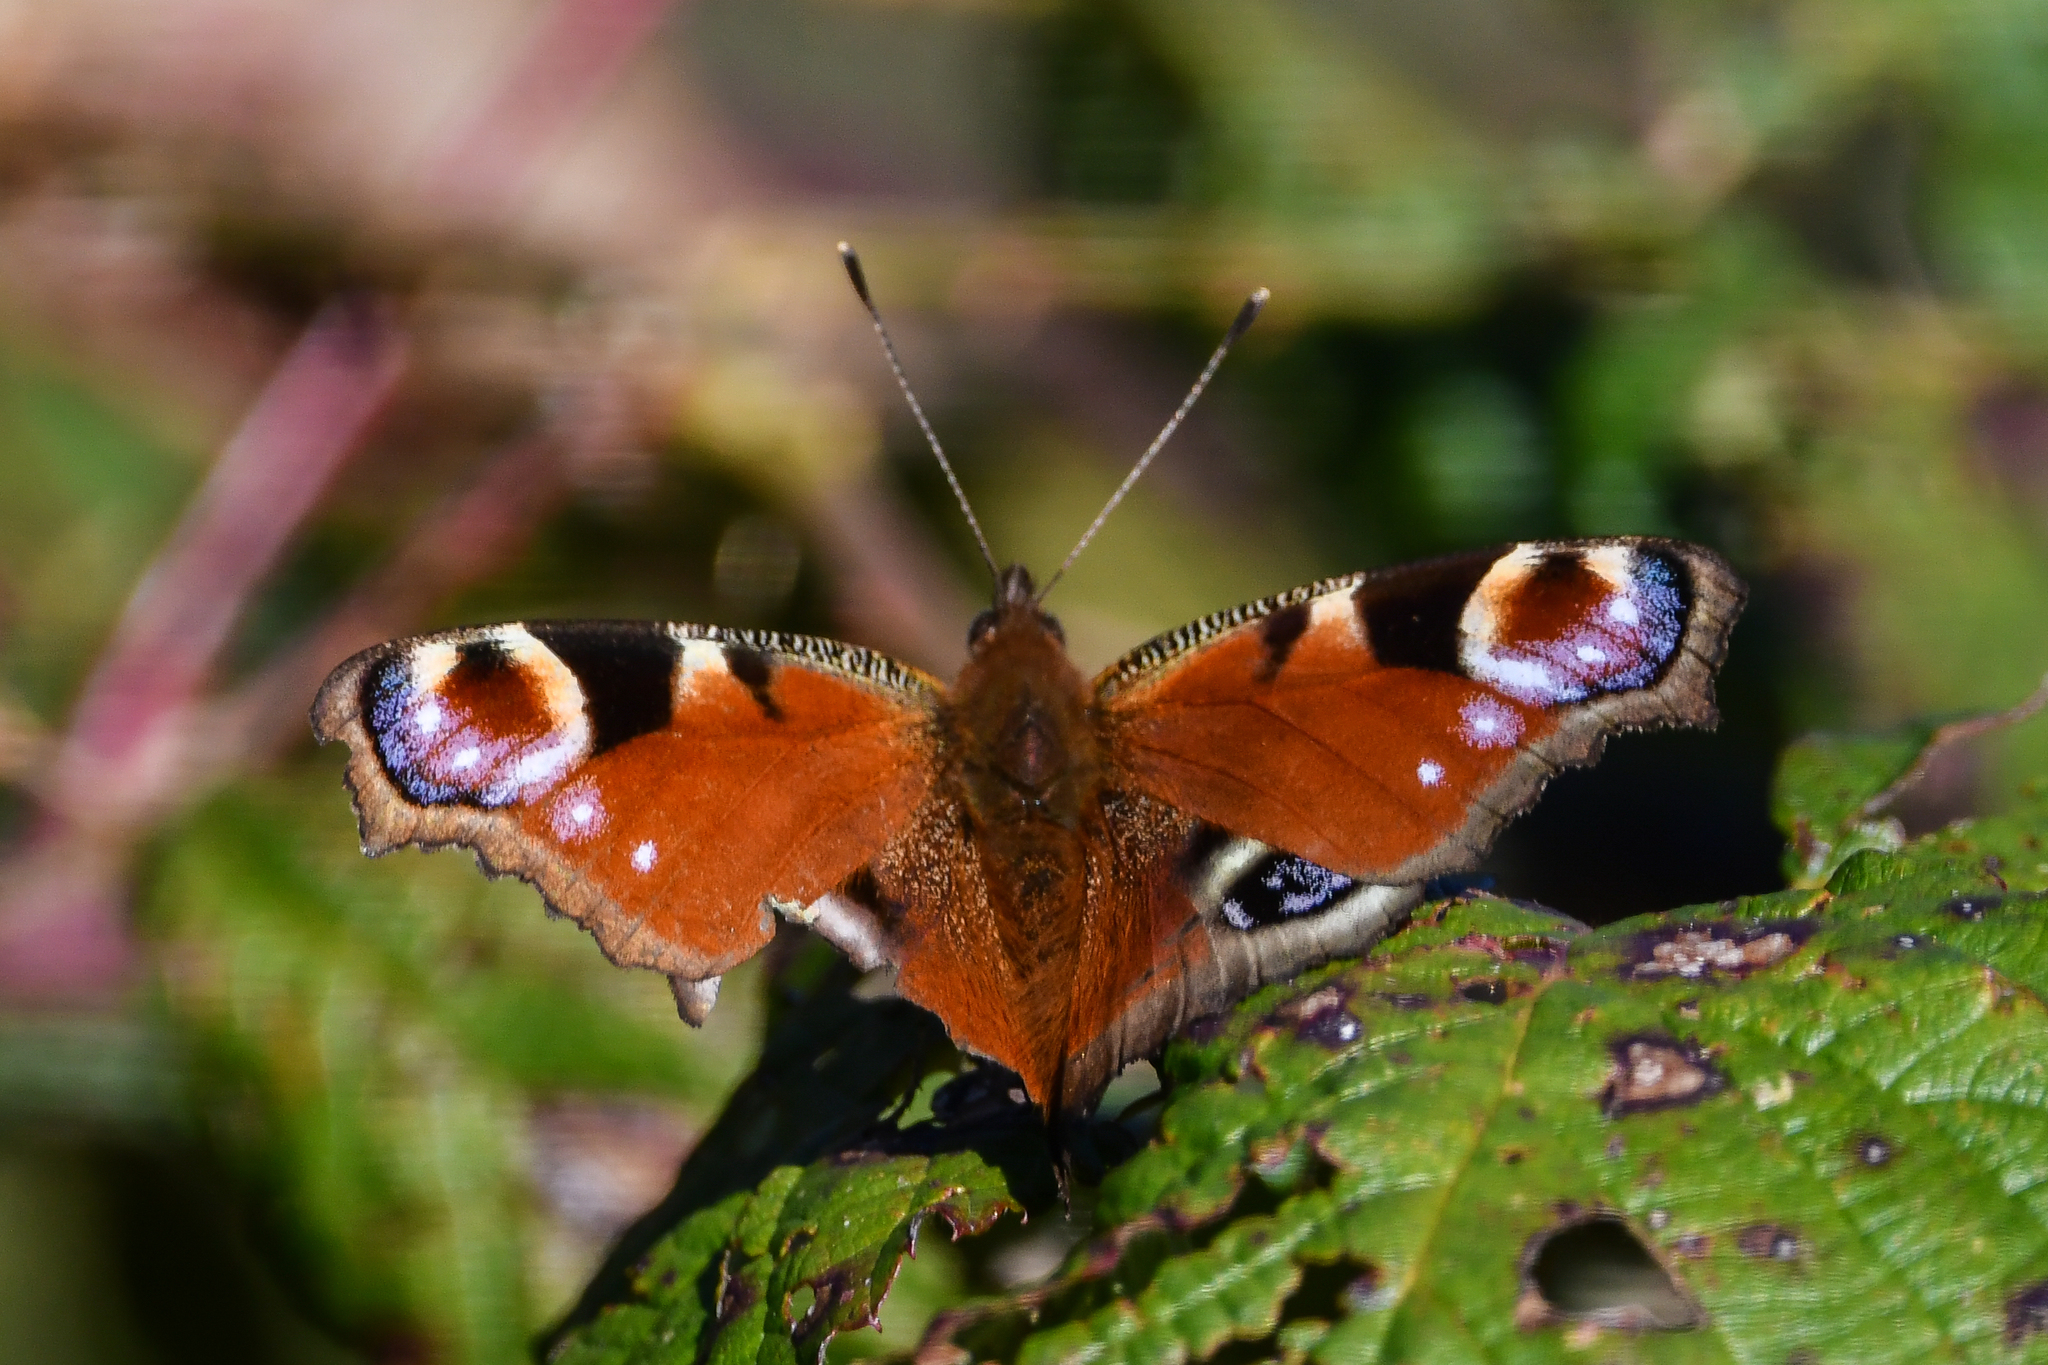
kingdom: Animalia
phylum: Arthropoda
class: Insecta
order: Lepidoptera
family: Nymphalidae
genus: Aglais
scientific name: Aglais io
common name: Peacock
